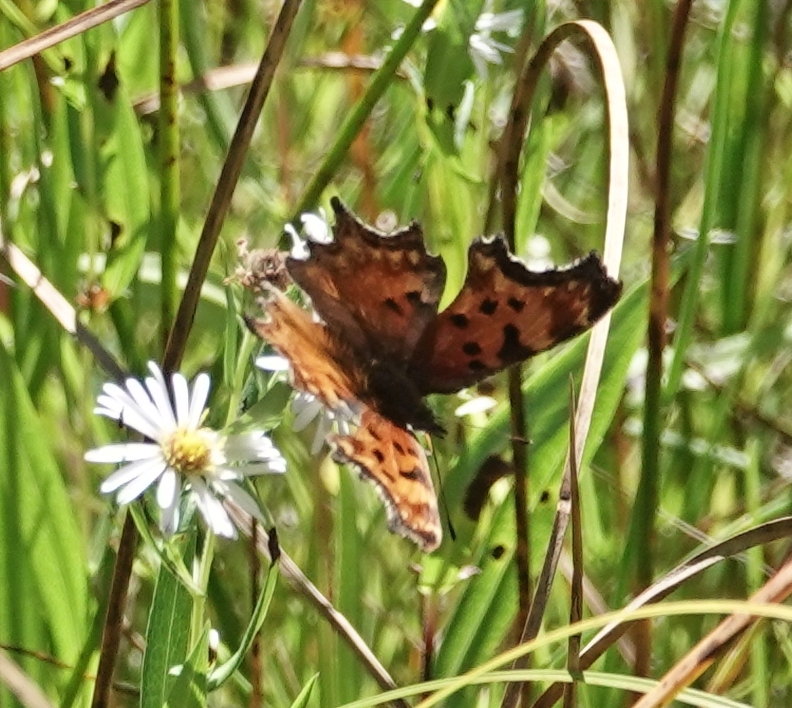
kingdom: Animalia
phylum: Arthropoda
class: Insecta
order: Lepidoptera
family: Nymphalidae
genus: Polygonia
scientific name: Polygonia gracilis
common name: Hoary comma
